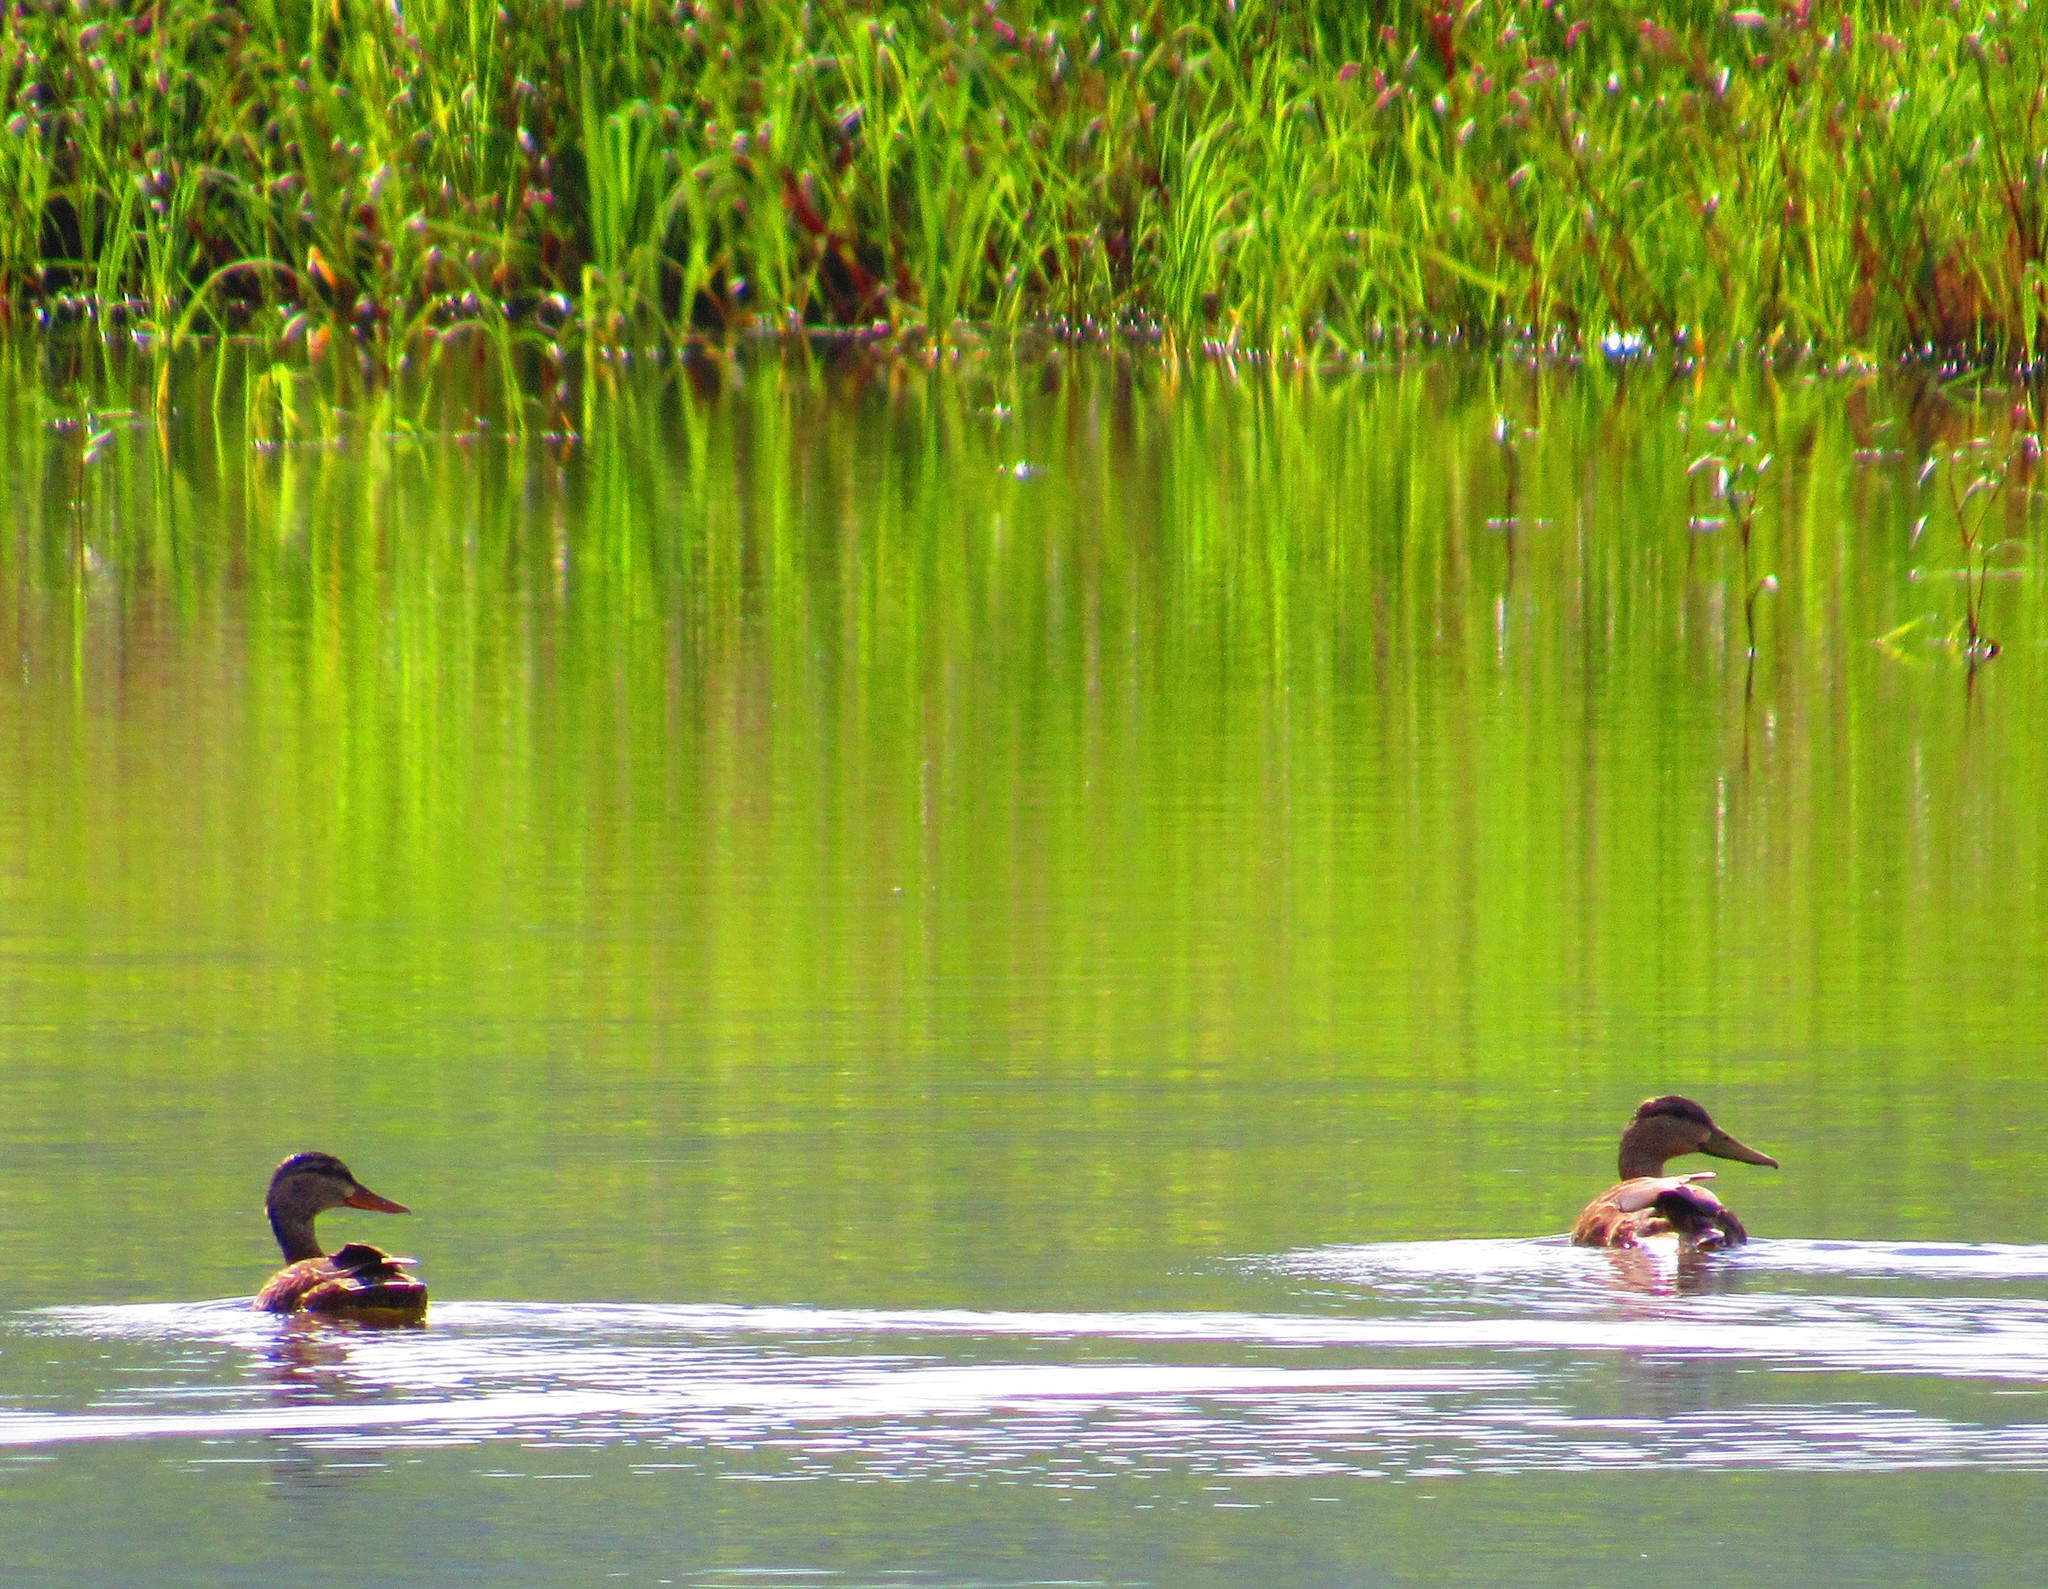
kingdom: Animalia
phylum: Chordata
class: Aves
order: Anseriformes
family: Anatidae
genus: Anas
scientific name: Anas diazi
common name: Mexican duck
